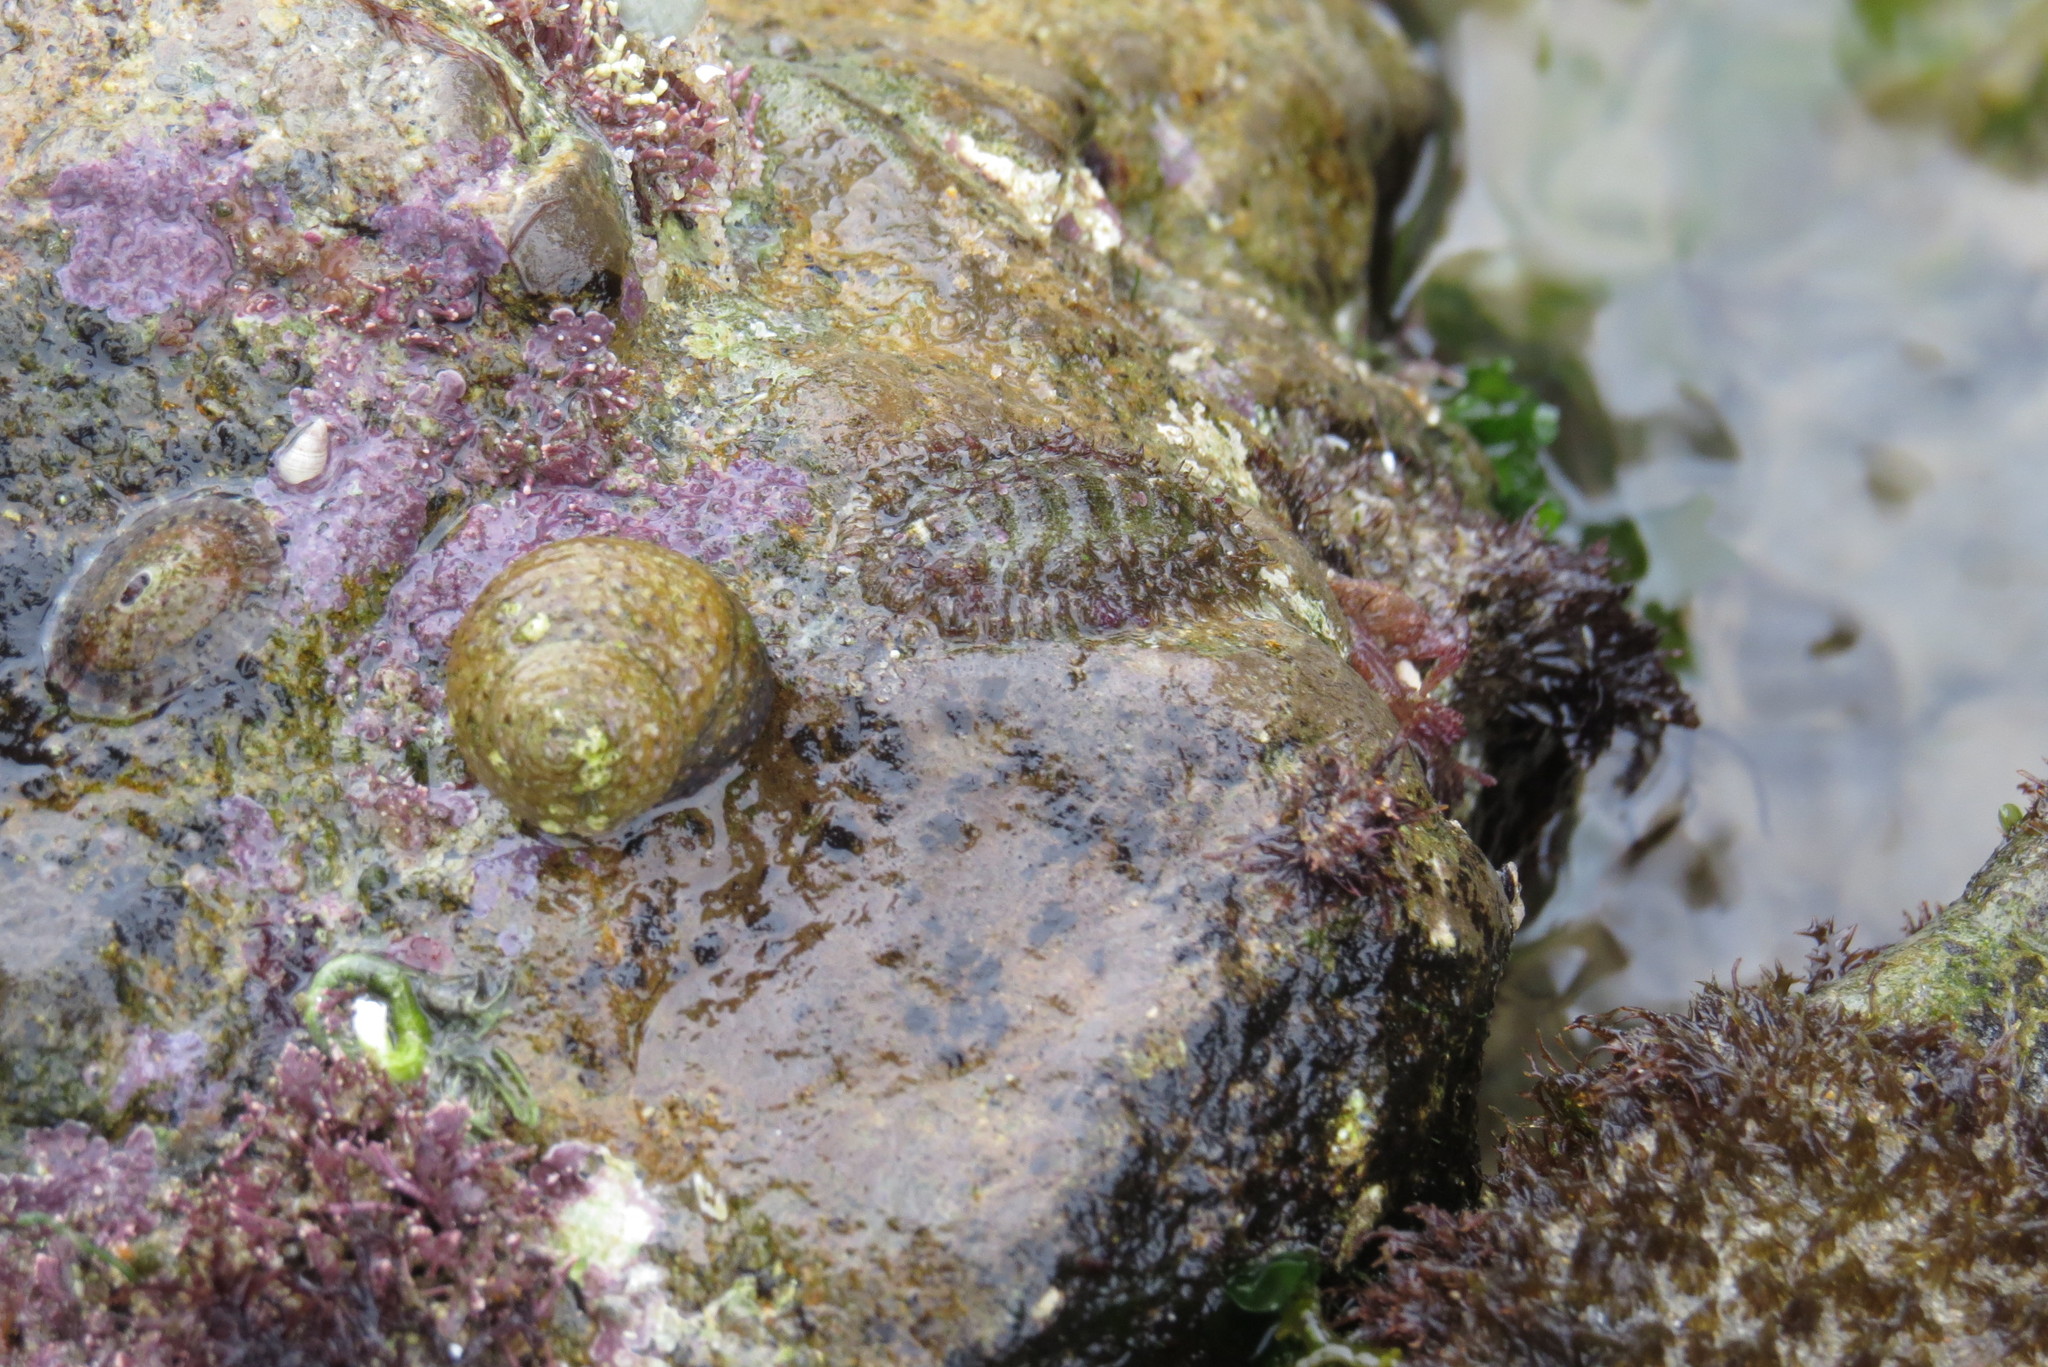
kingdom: Animalia
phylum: Mollusca
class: Polyplacophora
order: Chitonida
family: Mopaliidae
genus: Mopalia
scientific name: Mopalia muscosa
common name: Mossy chiton
